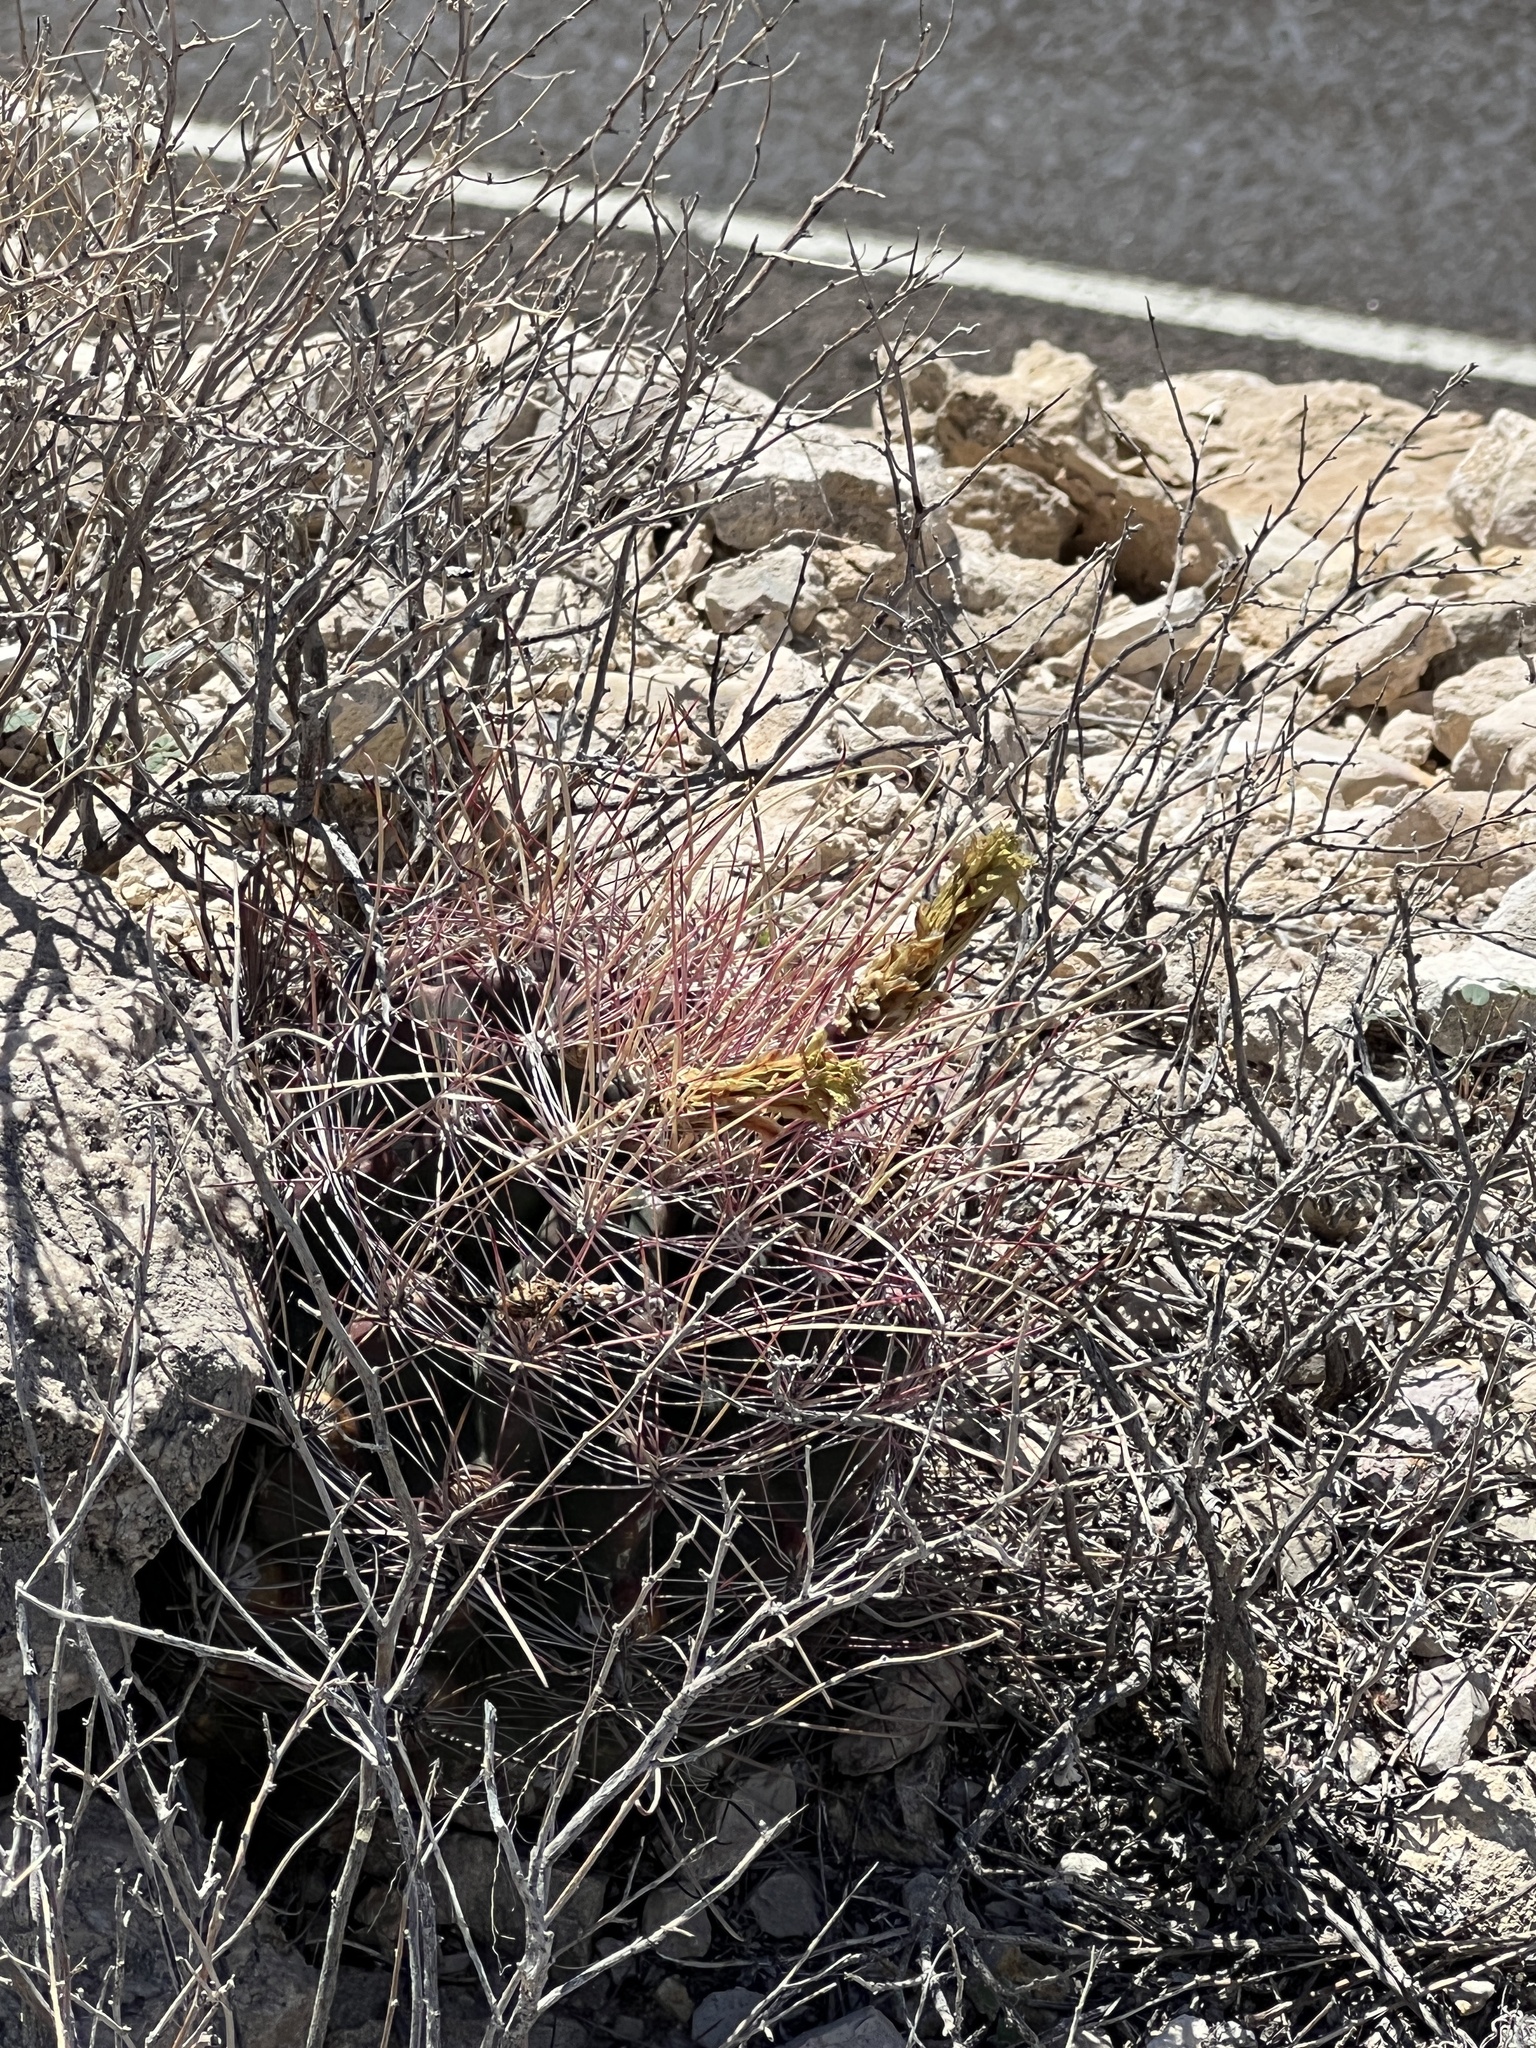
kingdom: Plantae
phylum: Tracheophyta
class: Magnoliopsida
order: Caryophyllales
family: Cactaceae
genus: Bisnaga
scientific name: Bisnaga hamatacantha
